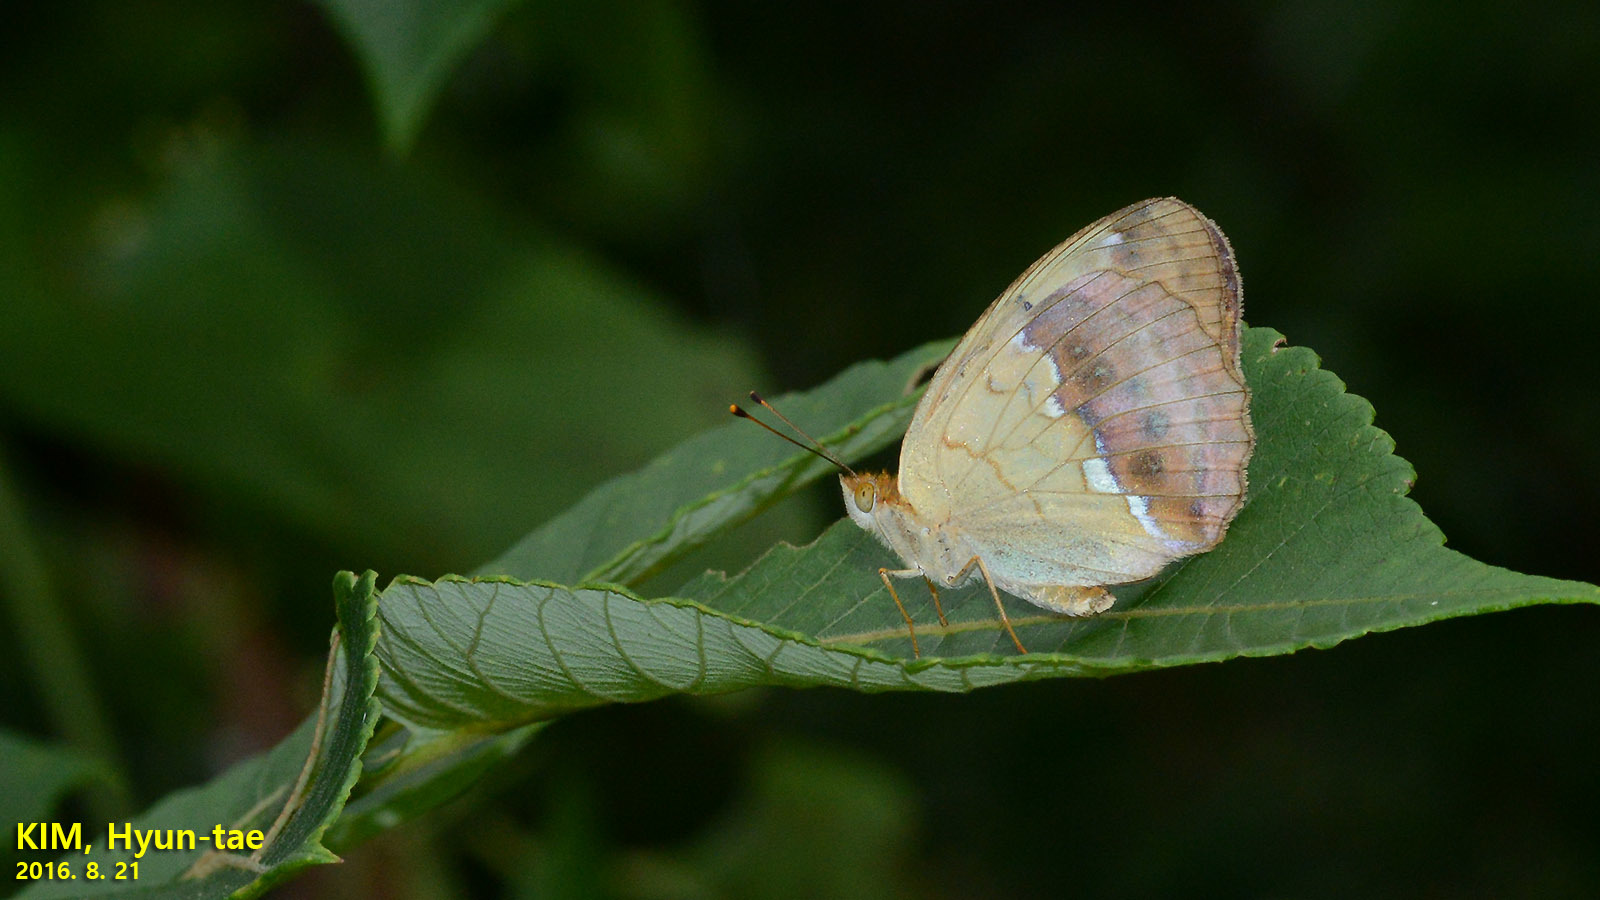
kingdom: Animalia
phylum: Arthropoda
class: Insecta
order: Lepidoptera
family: Nymphalidae
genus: Argyronome
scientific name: Argyronome laodice
